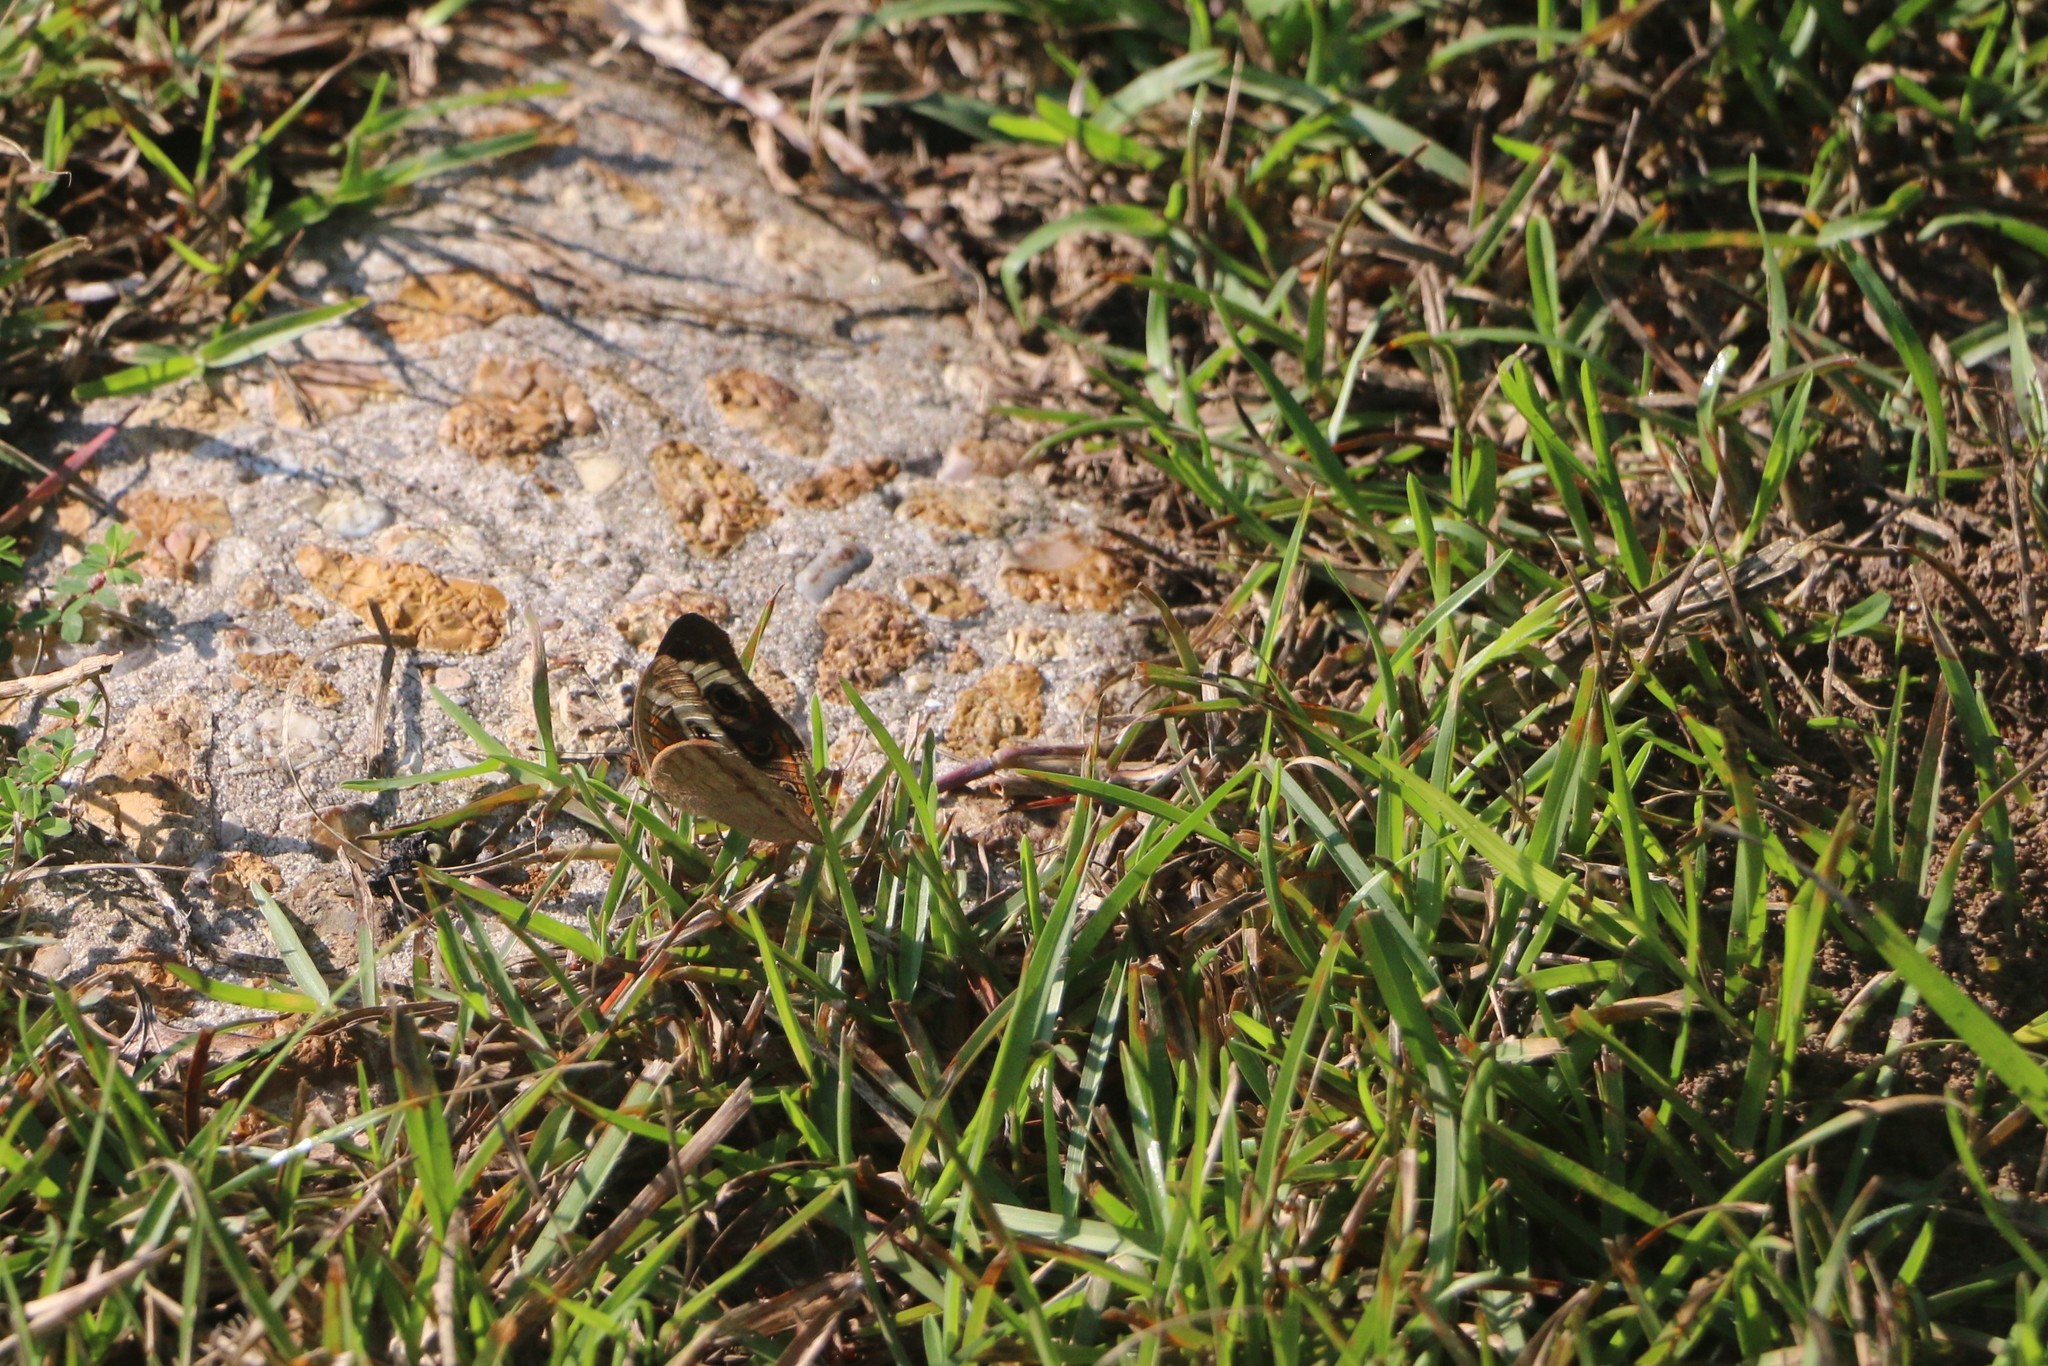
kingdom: Animalia
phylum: Arthropoda
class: Insecta
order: Lepidoptera
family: Nymphalidae
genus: Junonia
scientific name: Junonia coenia
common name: Common buckeye
